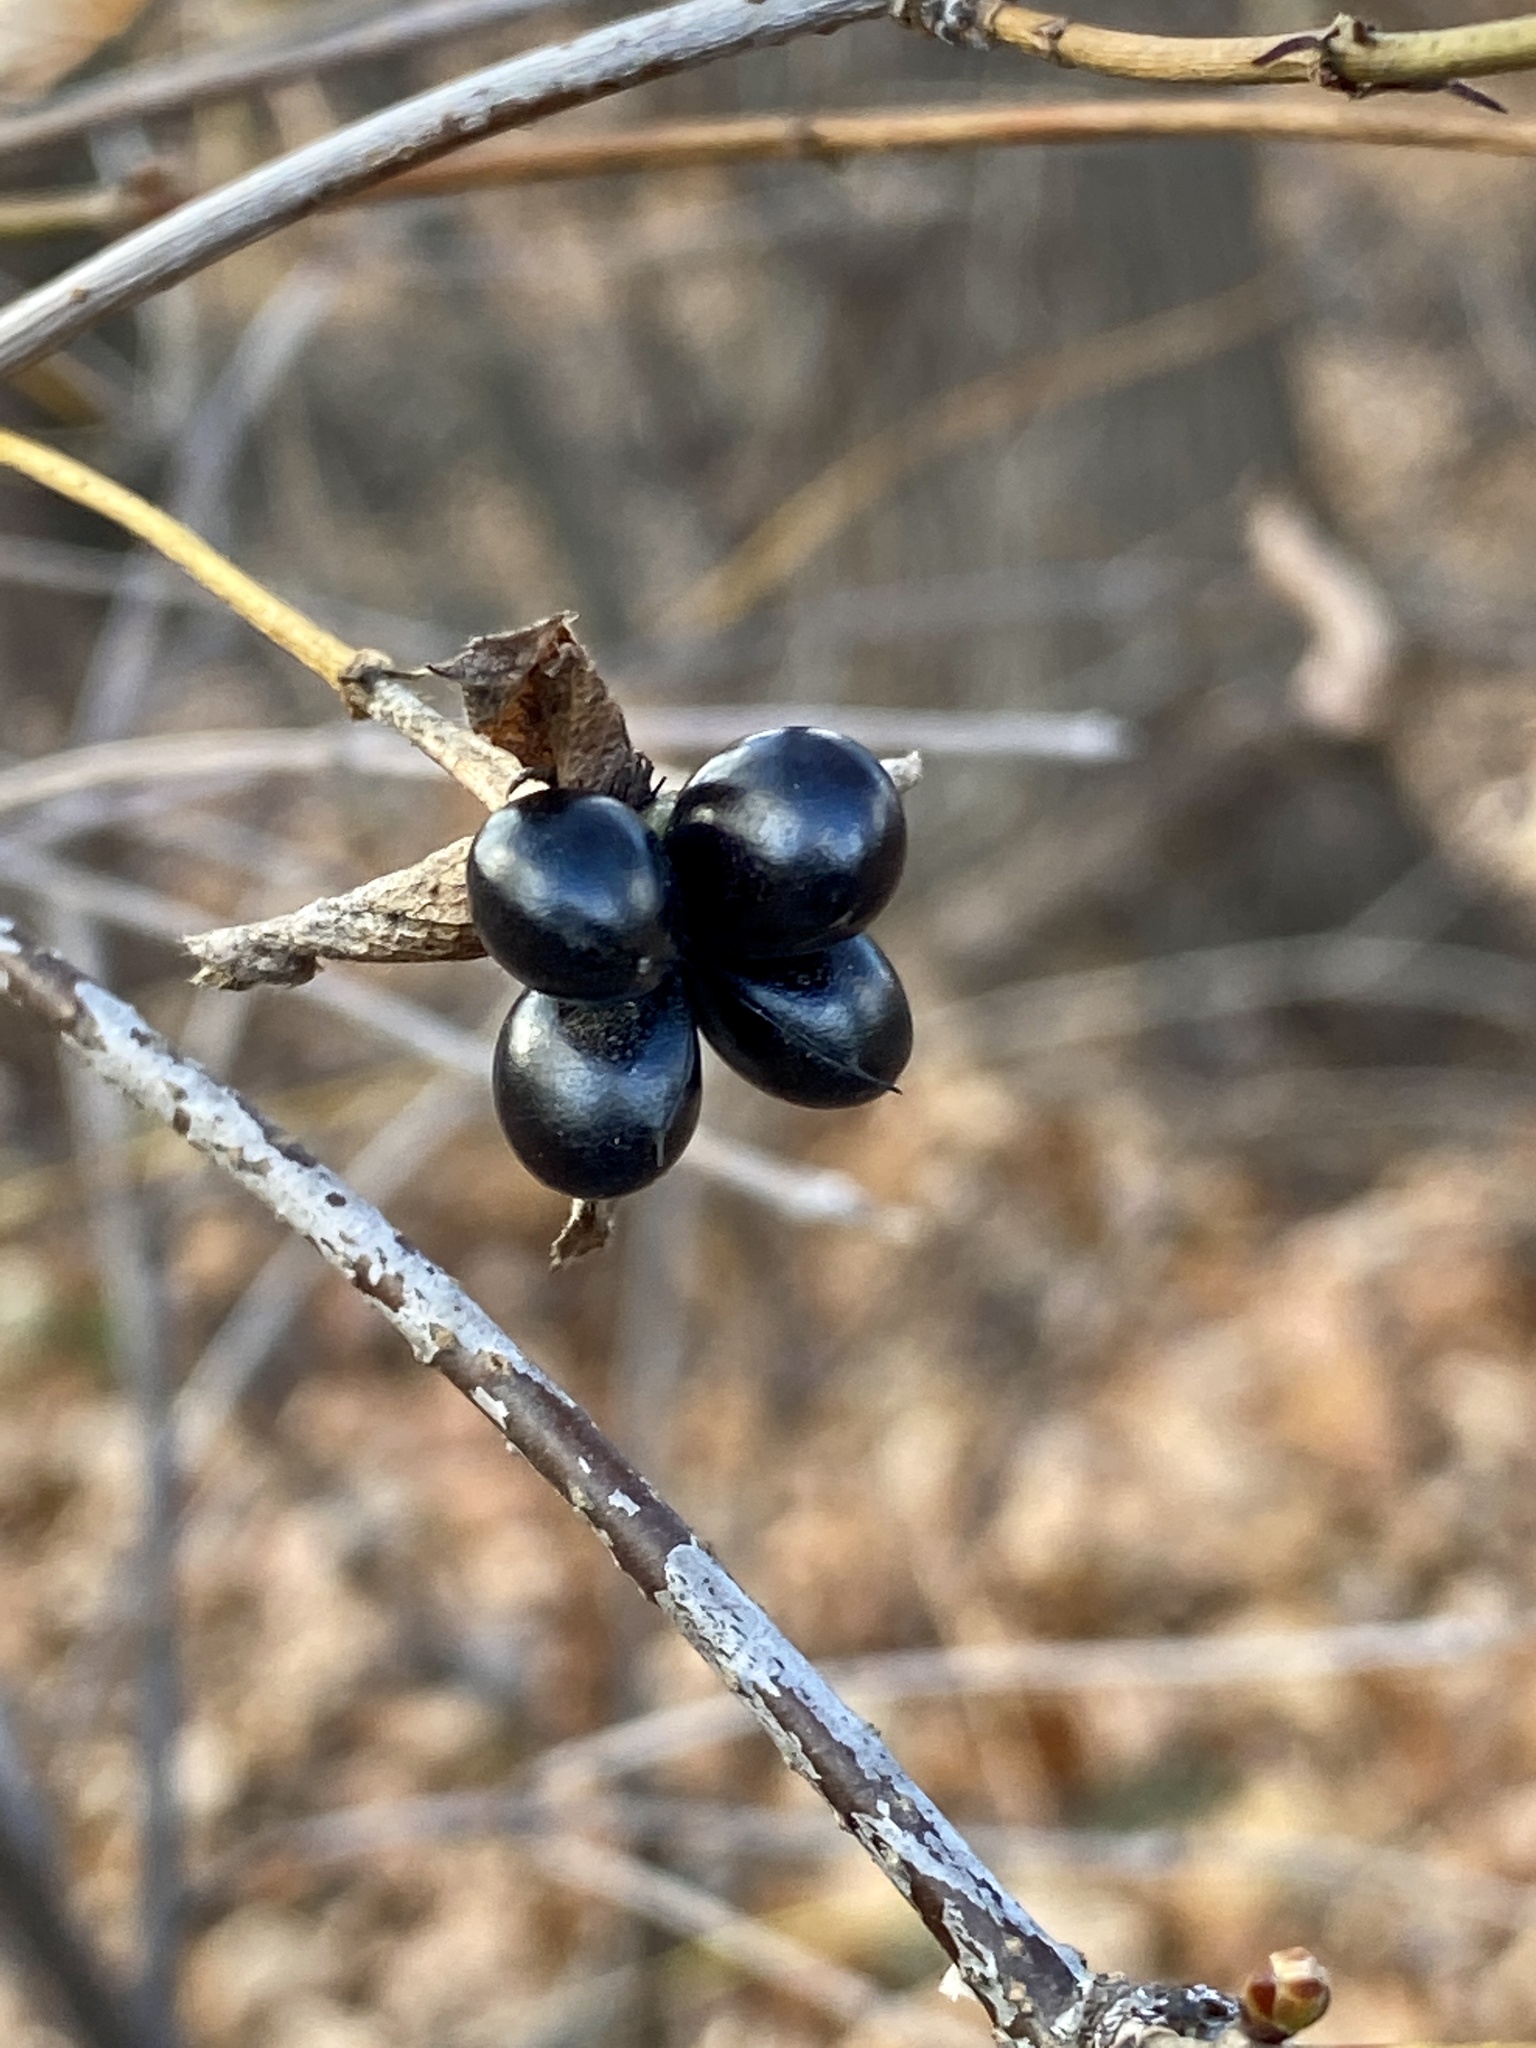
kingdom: Plantae
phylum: Tracheophyta
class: Magnoliopsida
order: Rosales
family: Rosaceae
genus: Rhodotypos
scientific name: Rhodotypos scandens
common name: Jetbead
